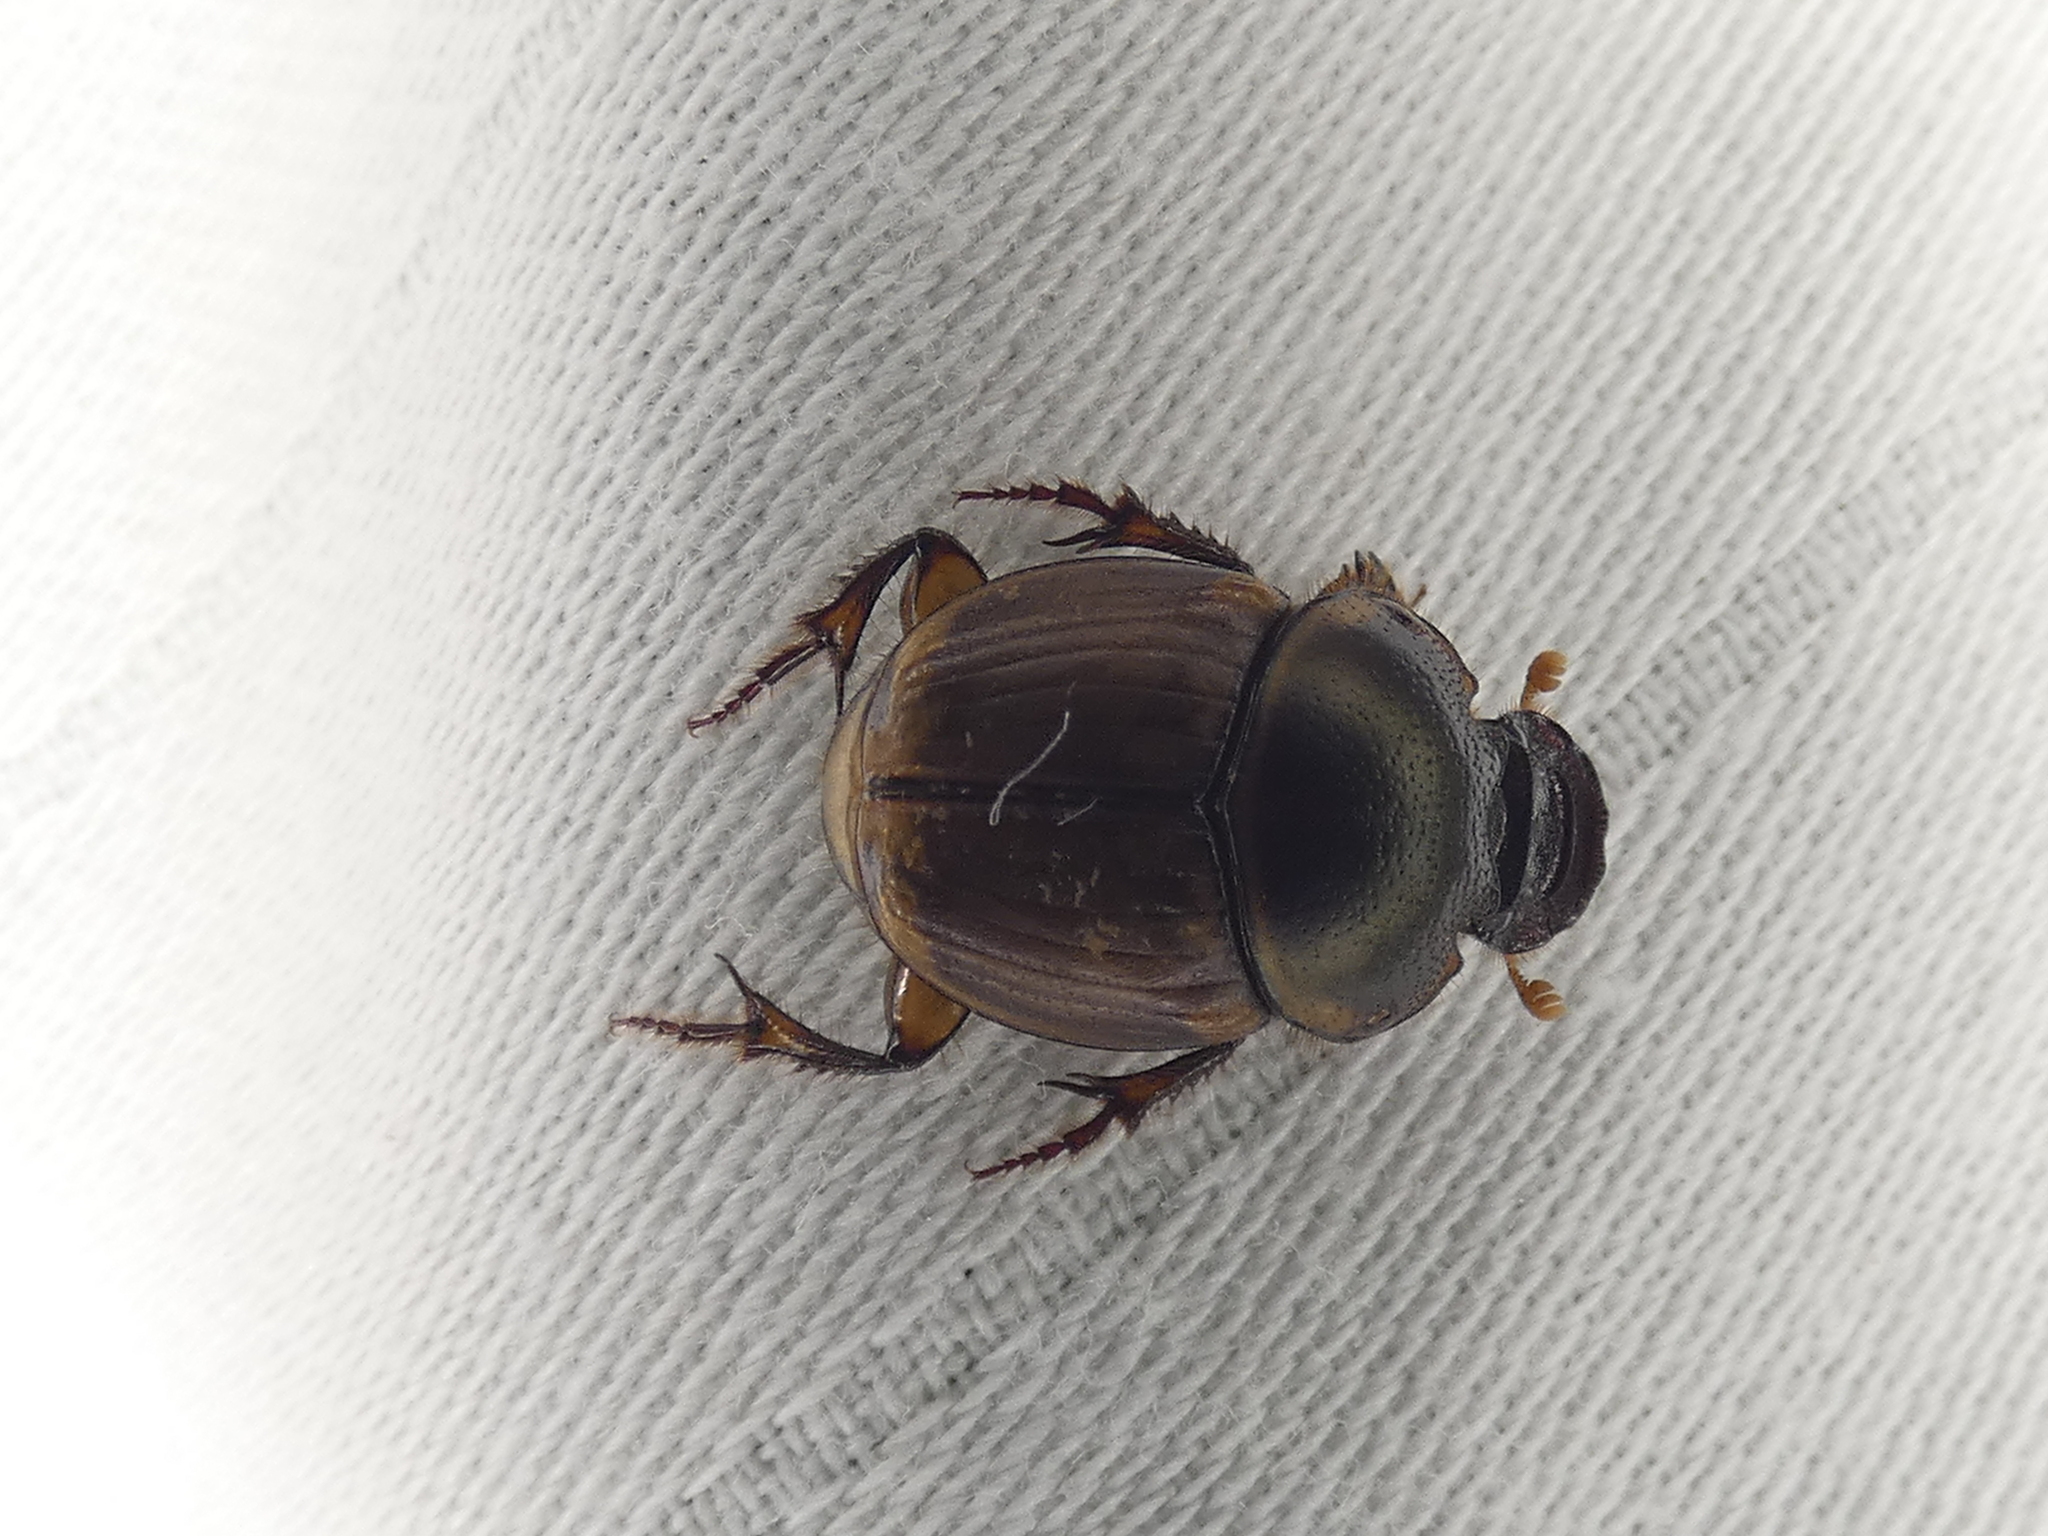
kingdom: Animalia
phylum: Arthropoda
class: Insecta
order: Coleoptera
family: Scarabaeidae
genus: Digitonthophagus
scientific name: Digitonthophagus gazella
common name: Brown dung beetle
